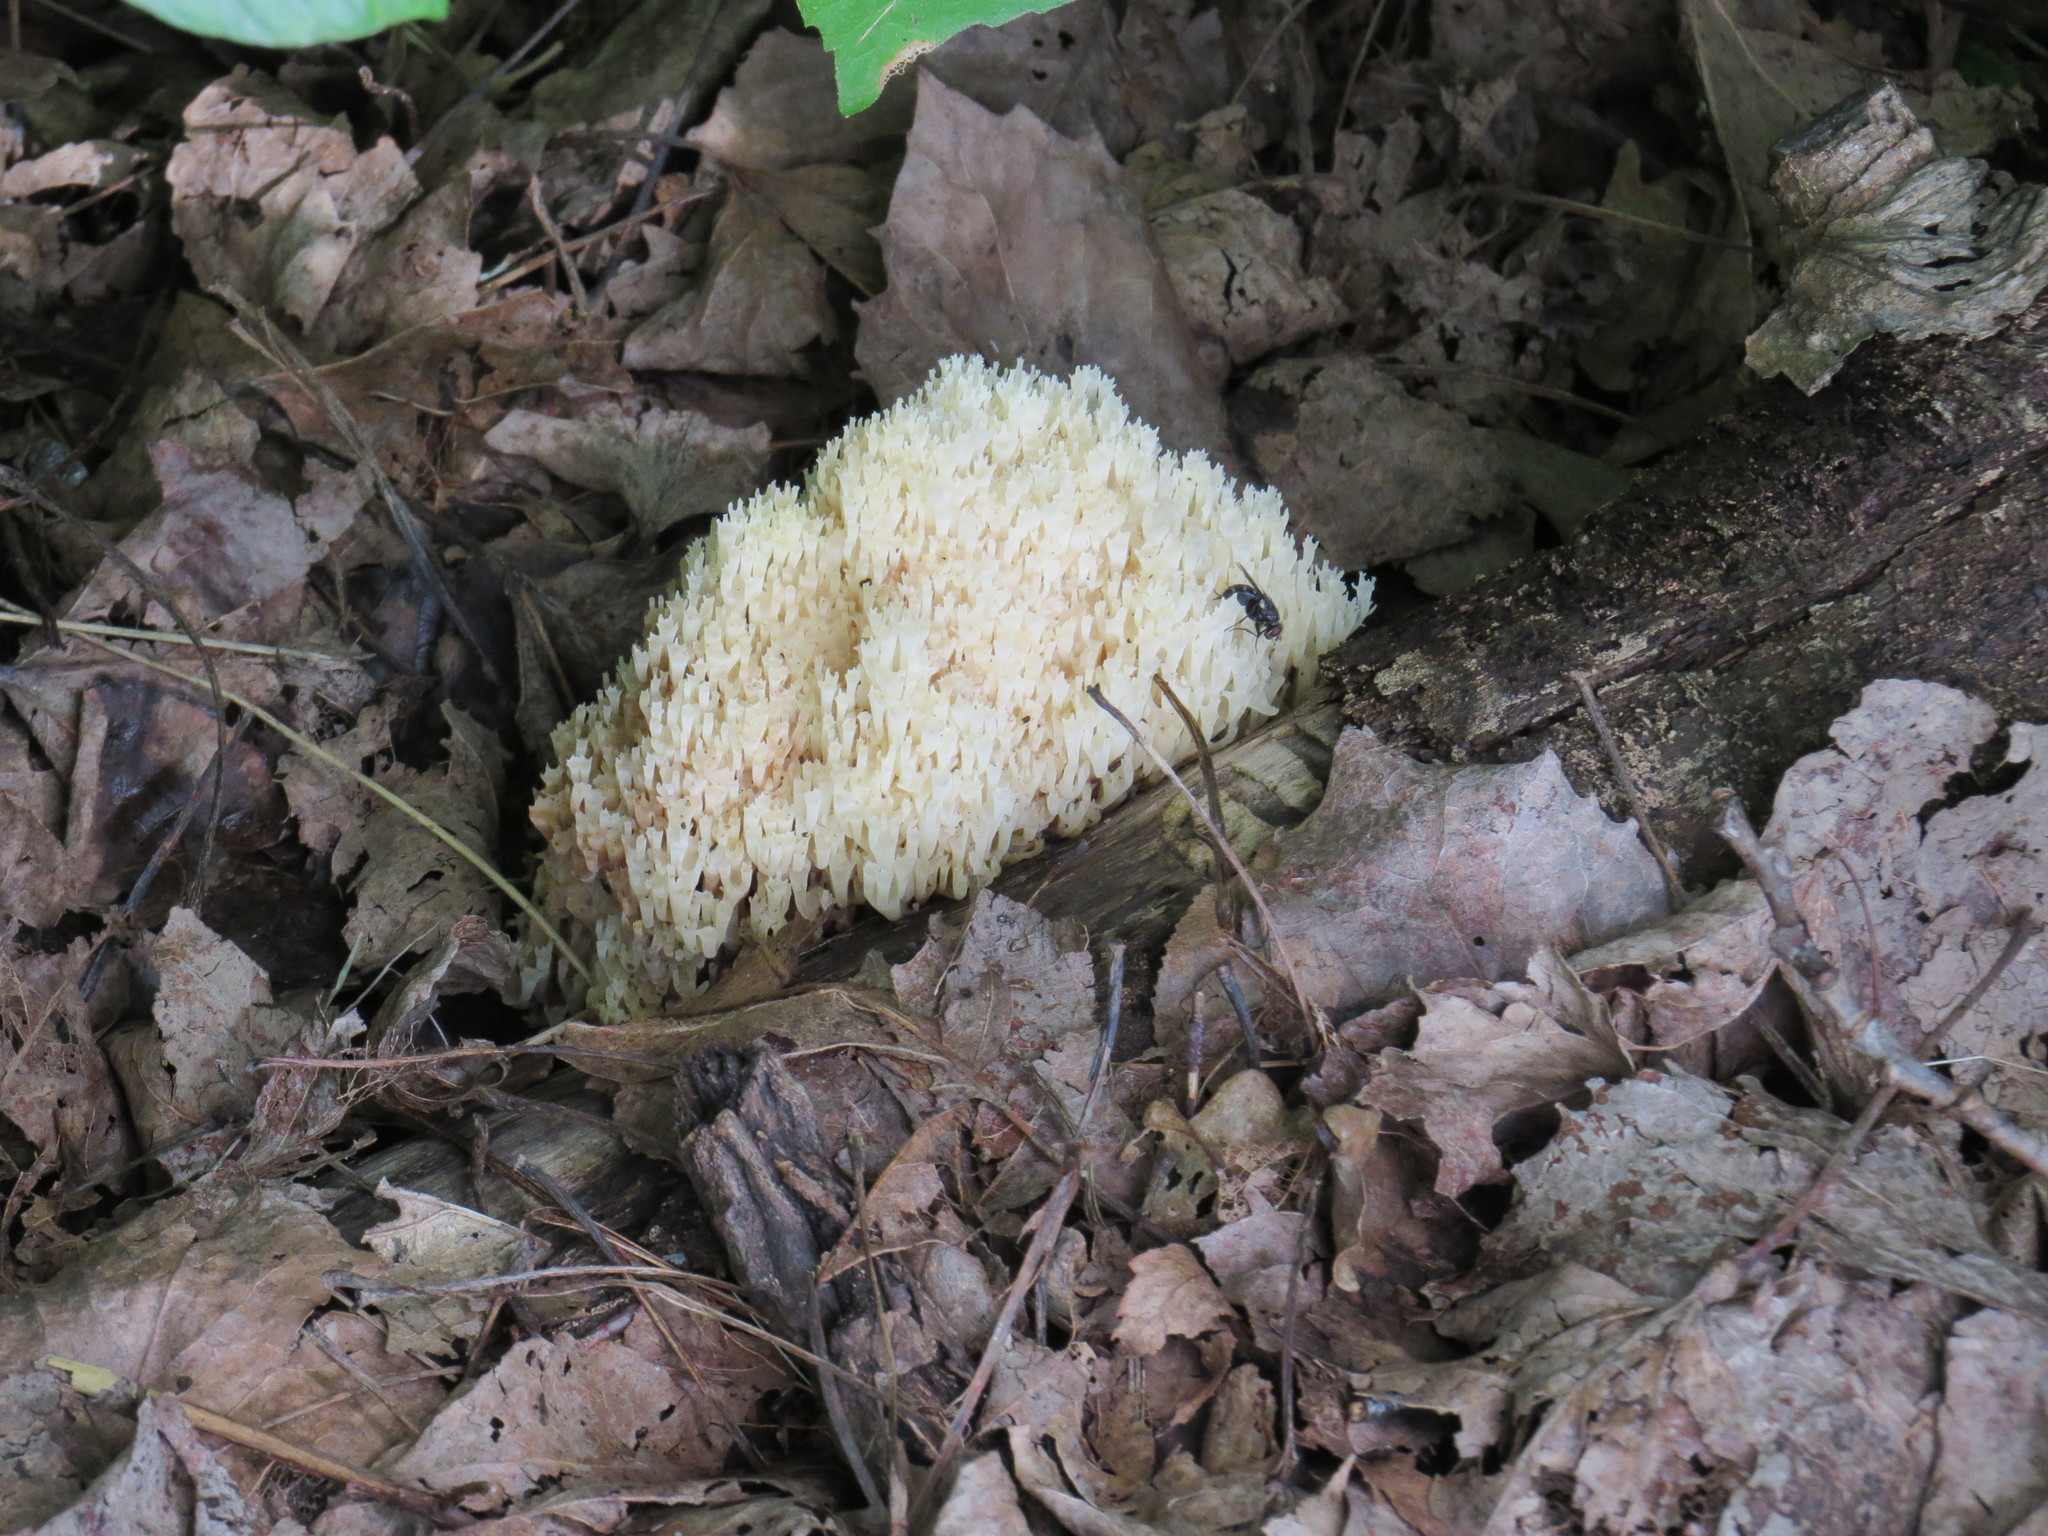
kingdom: Fungi
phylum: Basidiomycota
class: Agaricomycetes
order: Agaricales
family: Clavariaceae
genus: Ramariopsis
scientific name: Ramariopsis kunzei
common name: Ivory coral
